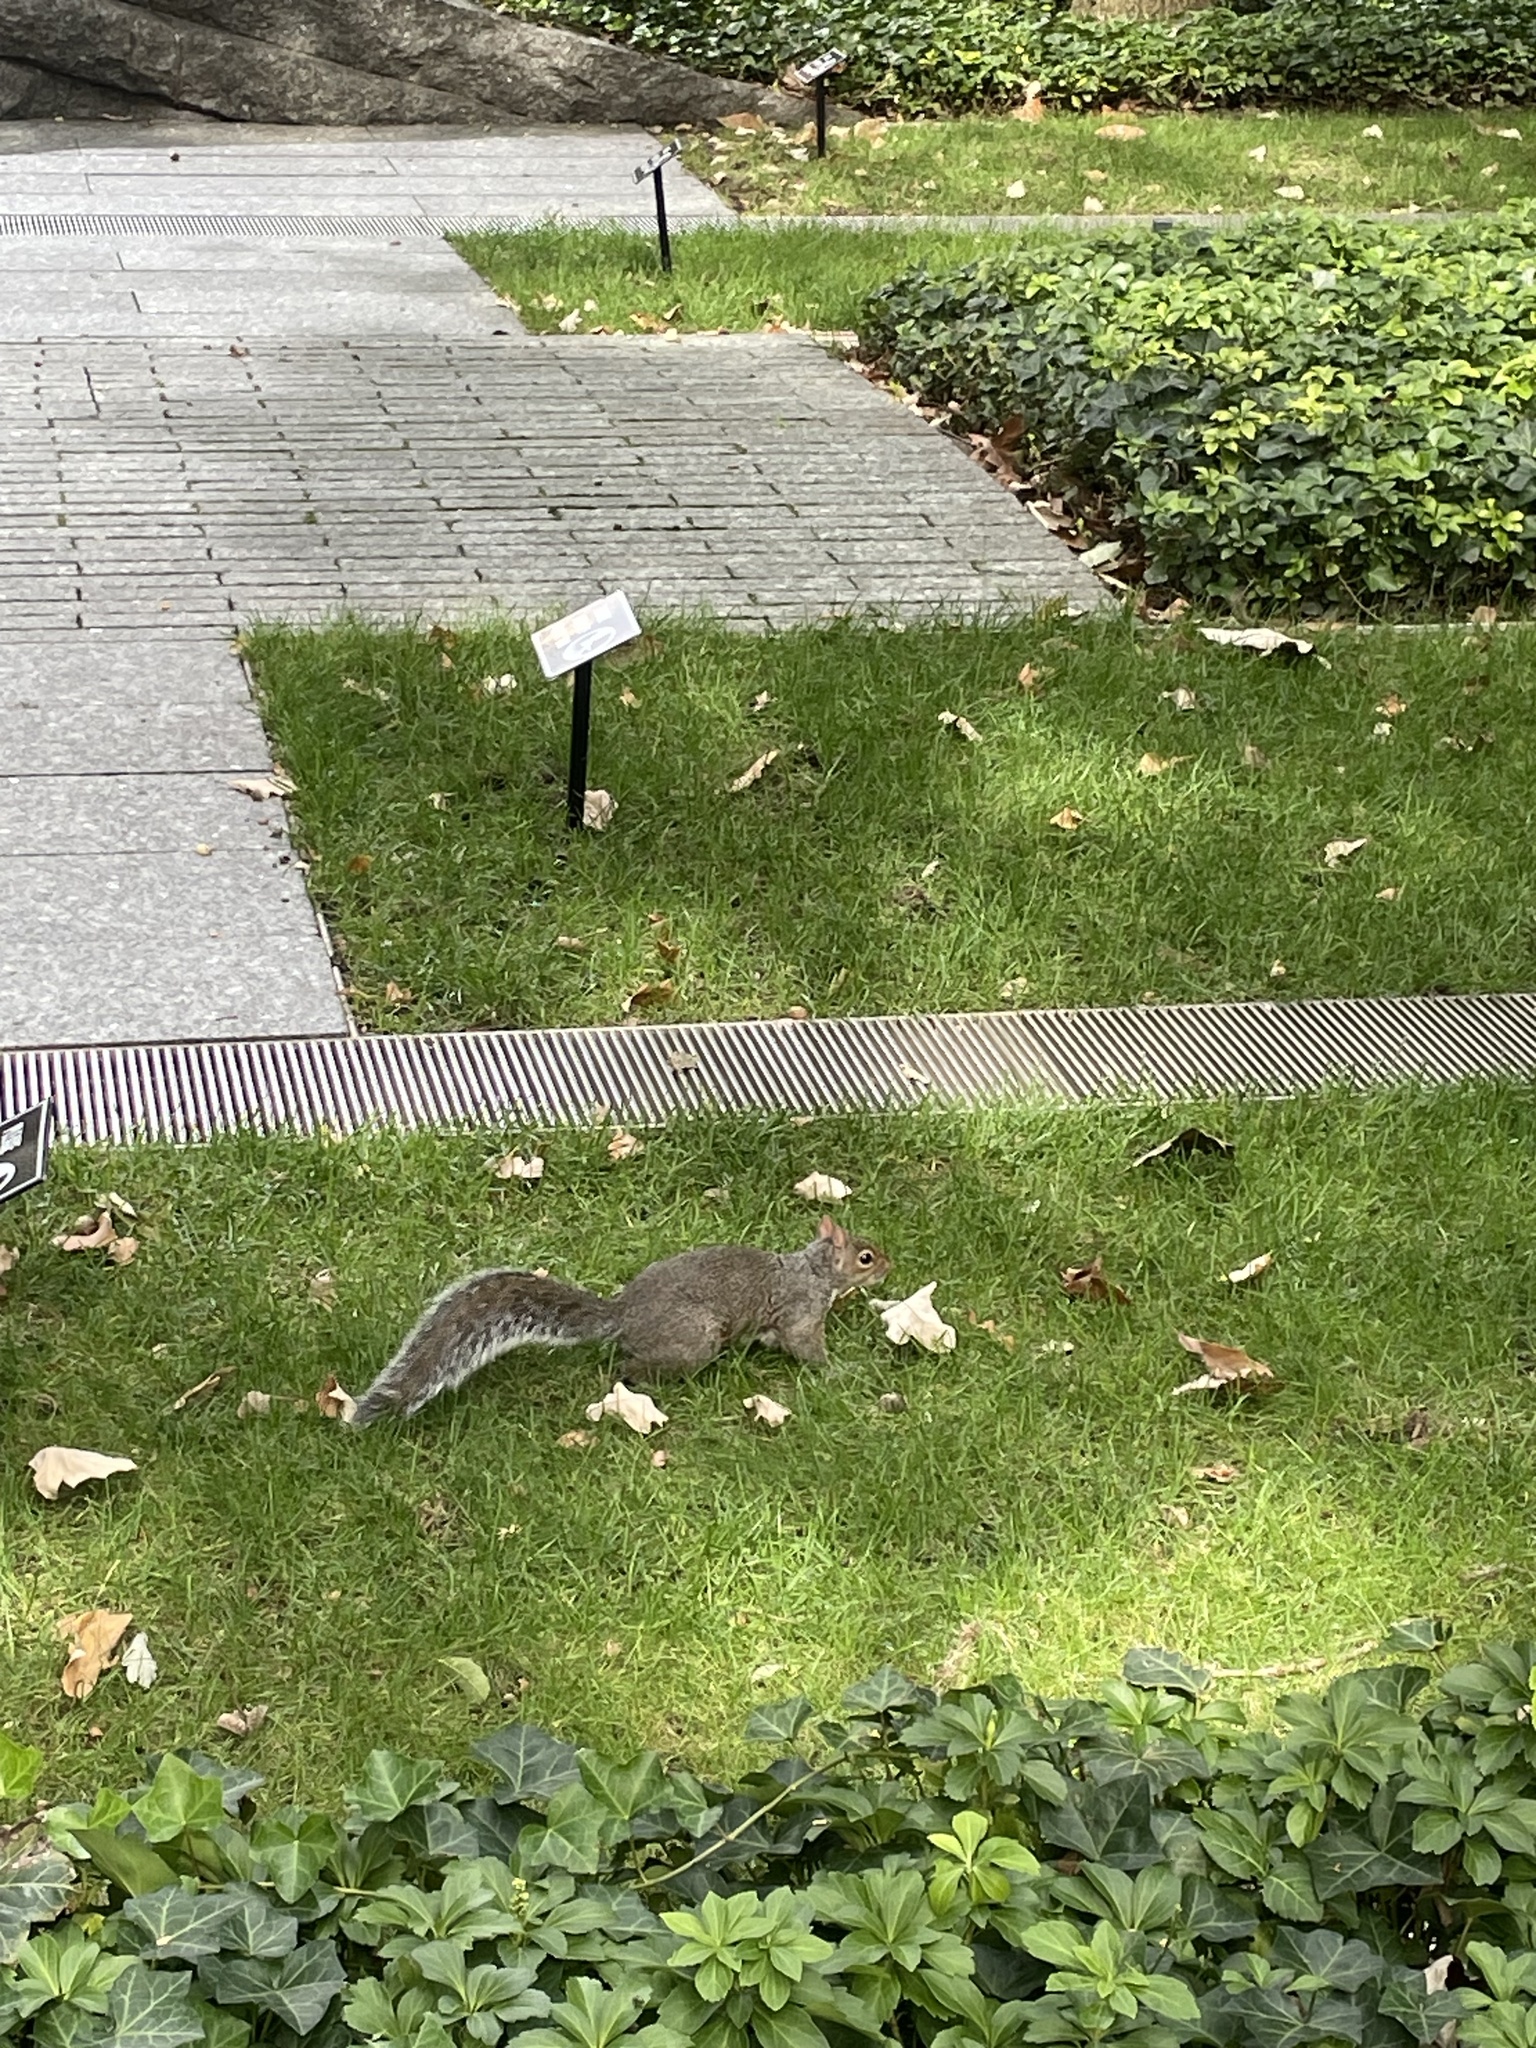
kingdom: Animalia
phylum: Chordata
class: Mammalia
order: Rodentia
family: Sciuridae
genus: Sciurus
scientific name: Sciurus carolinensis
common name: Eastern gray squirrel
